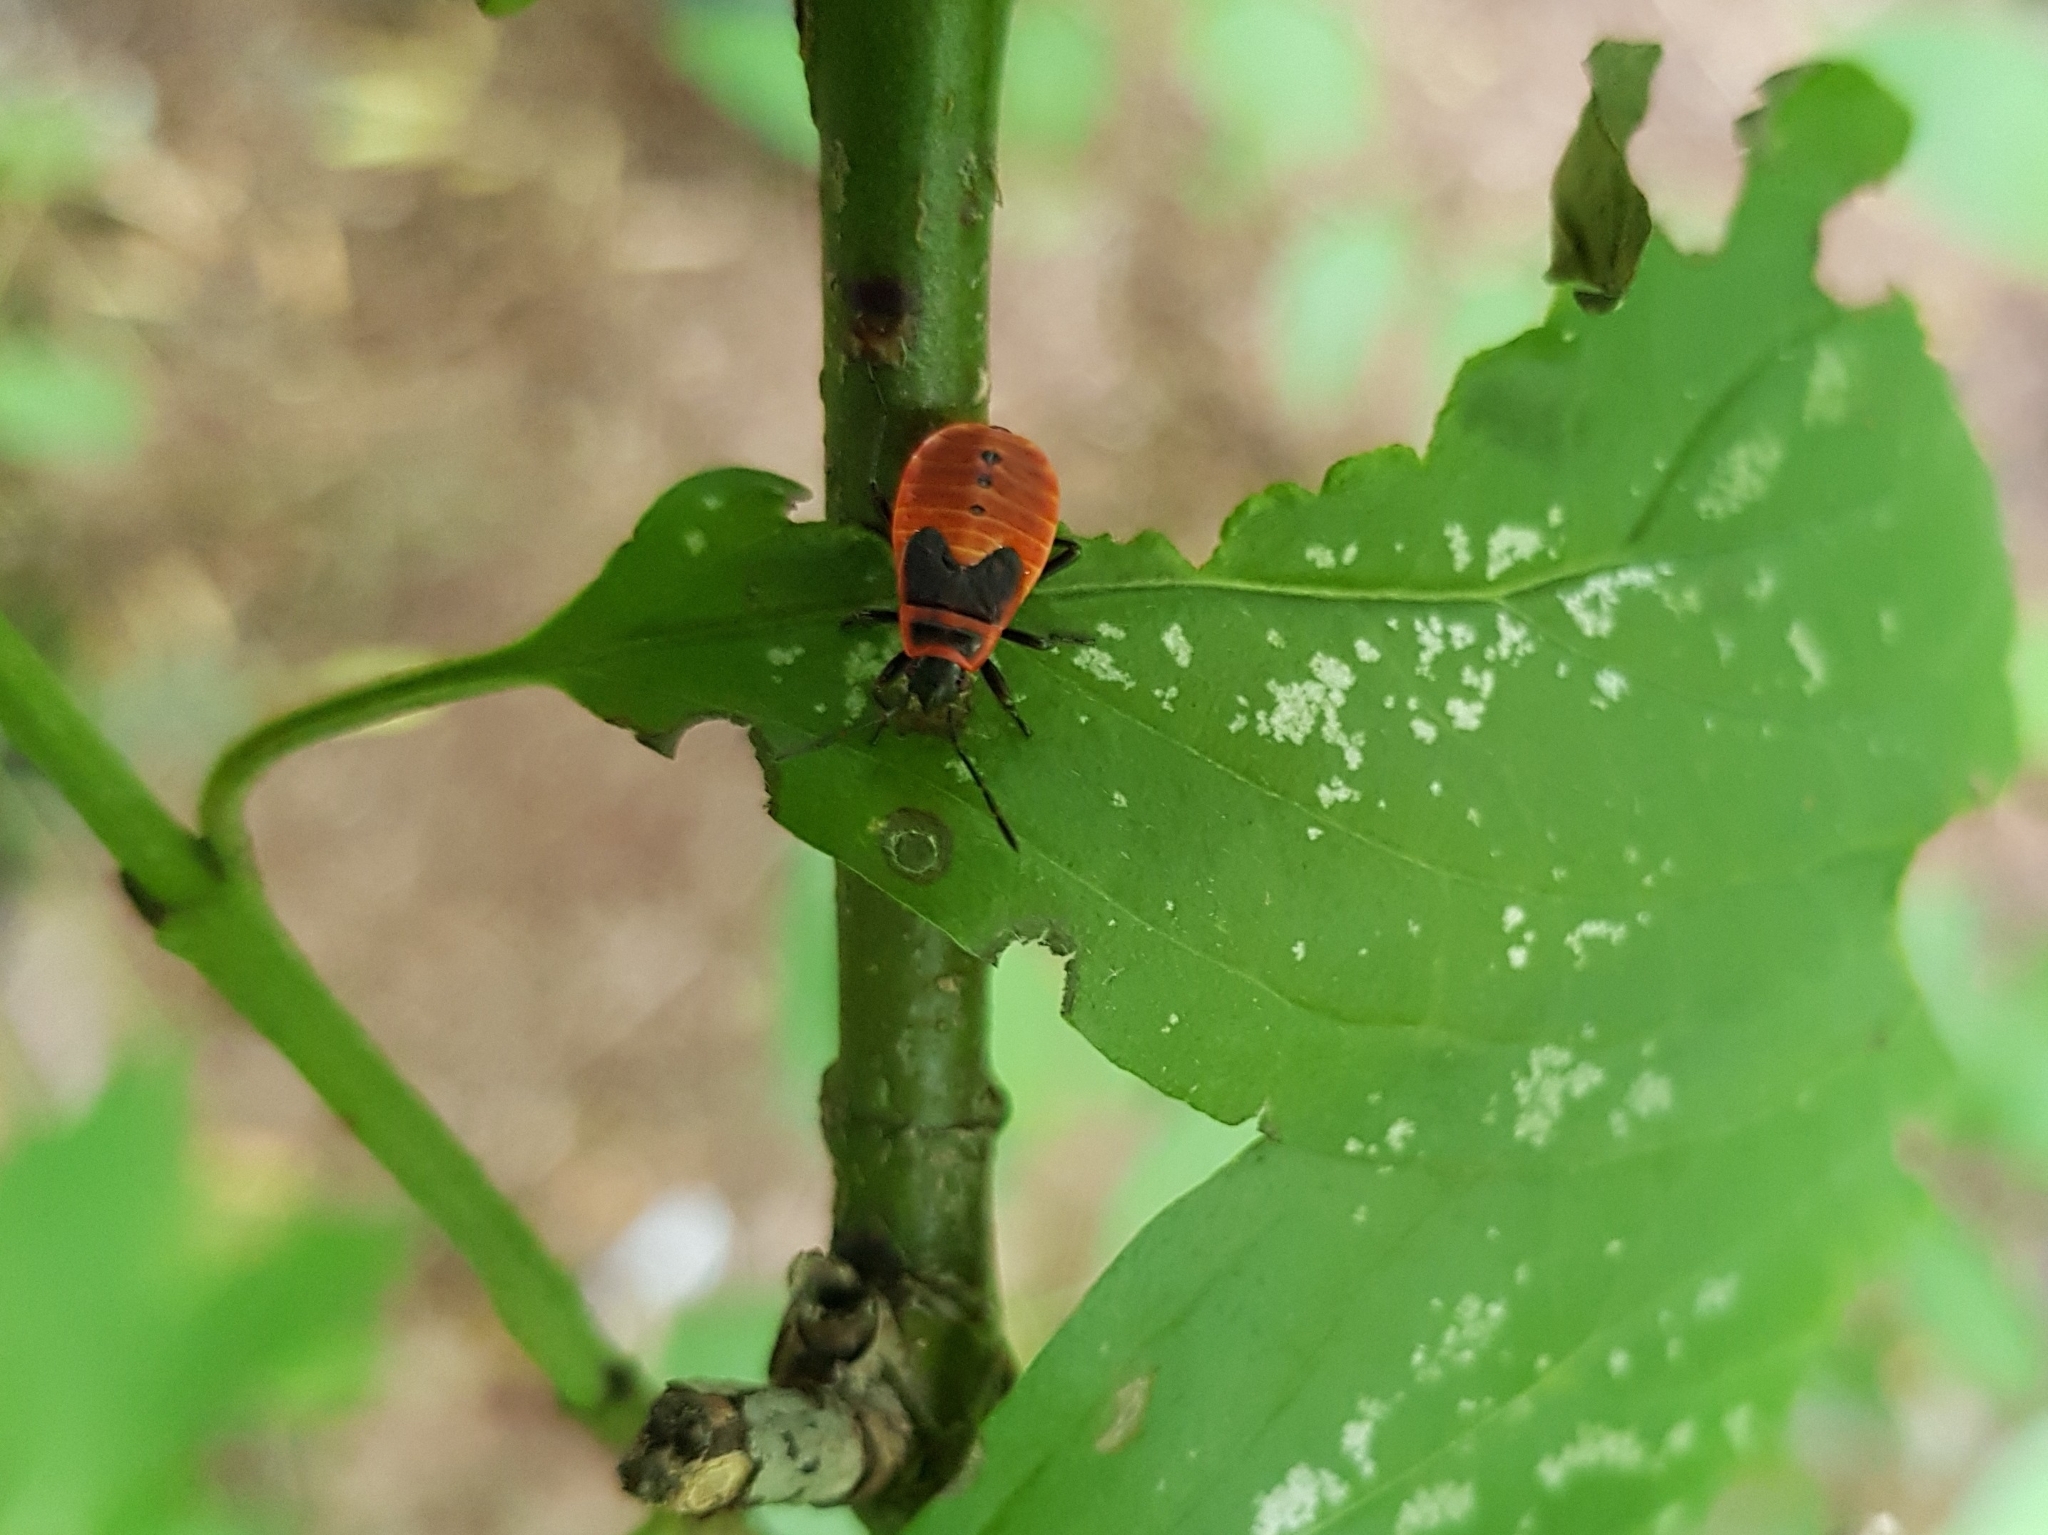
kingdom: Animalia
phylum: Arthropoda
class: Insecta
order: Hemiptera
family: Pyrrhocoridae
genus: Pyrrhocoris
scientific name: Pyrrhocoris apterus
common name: Firebug
